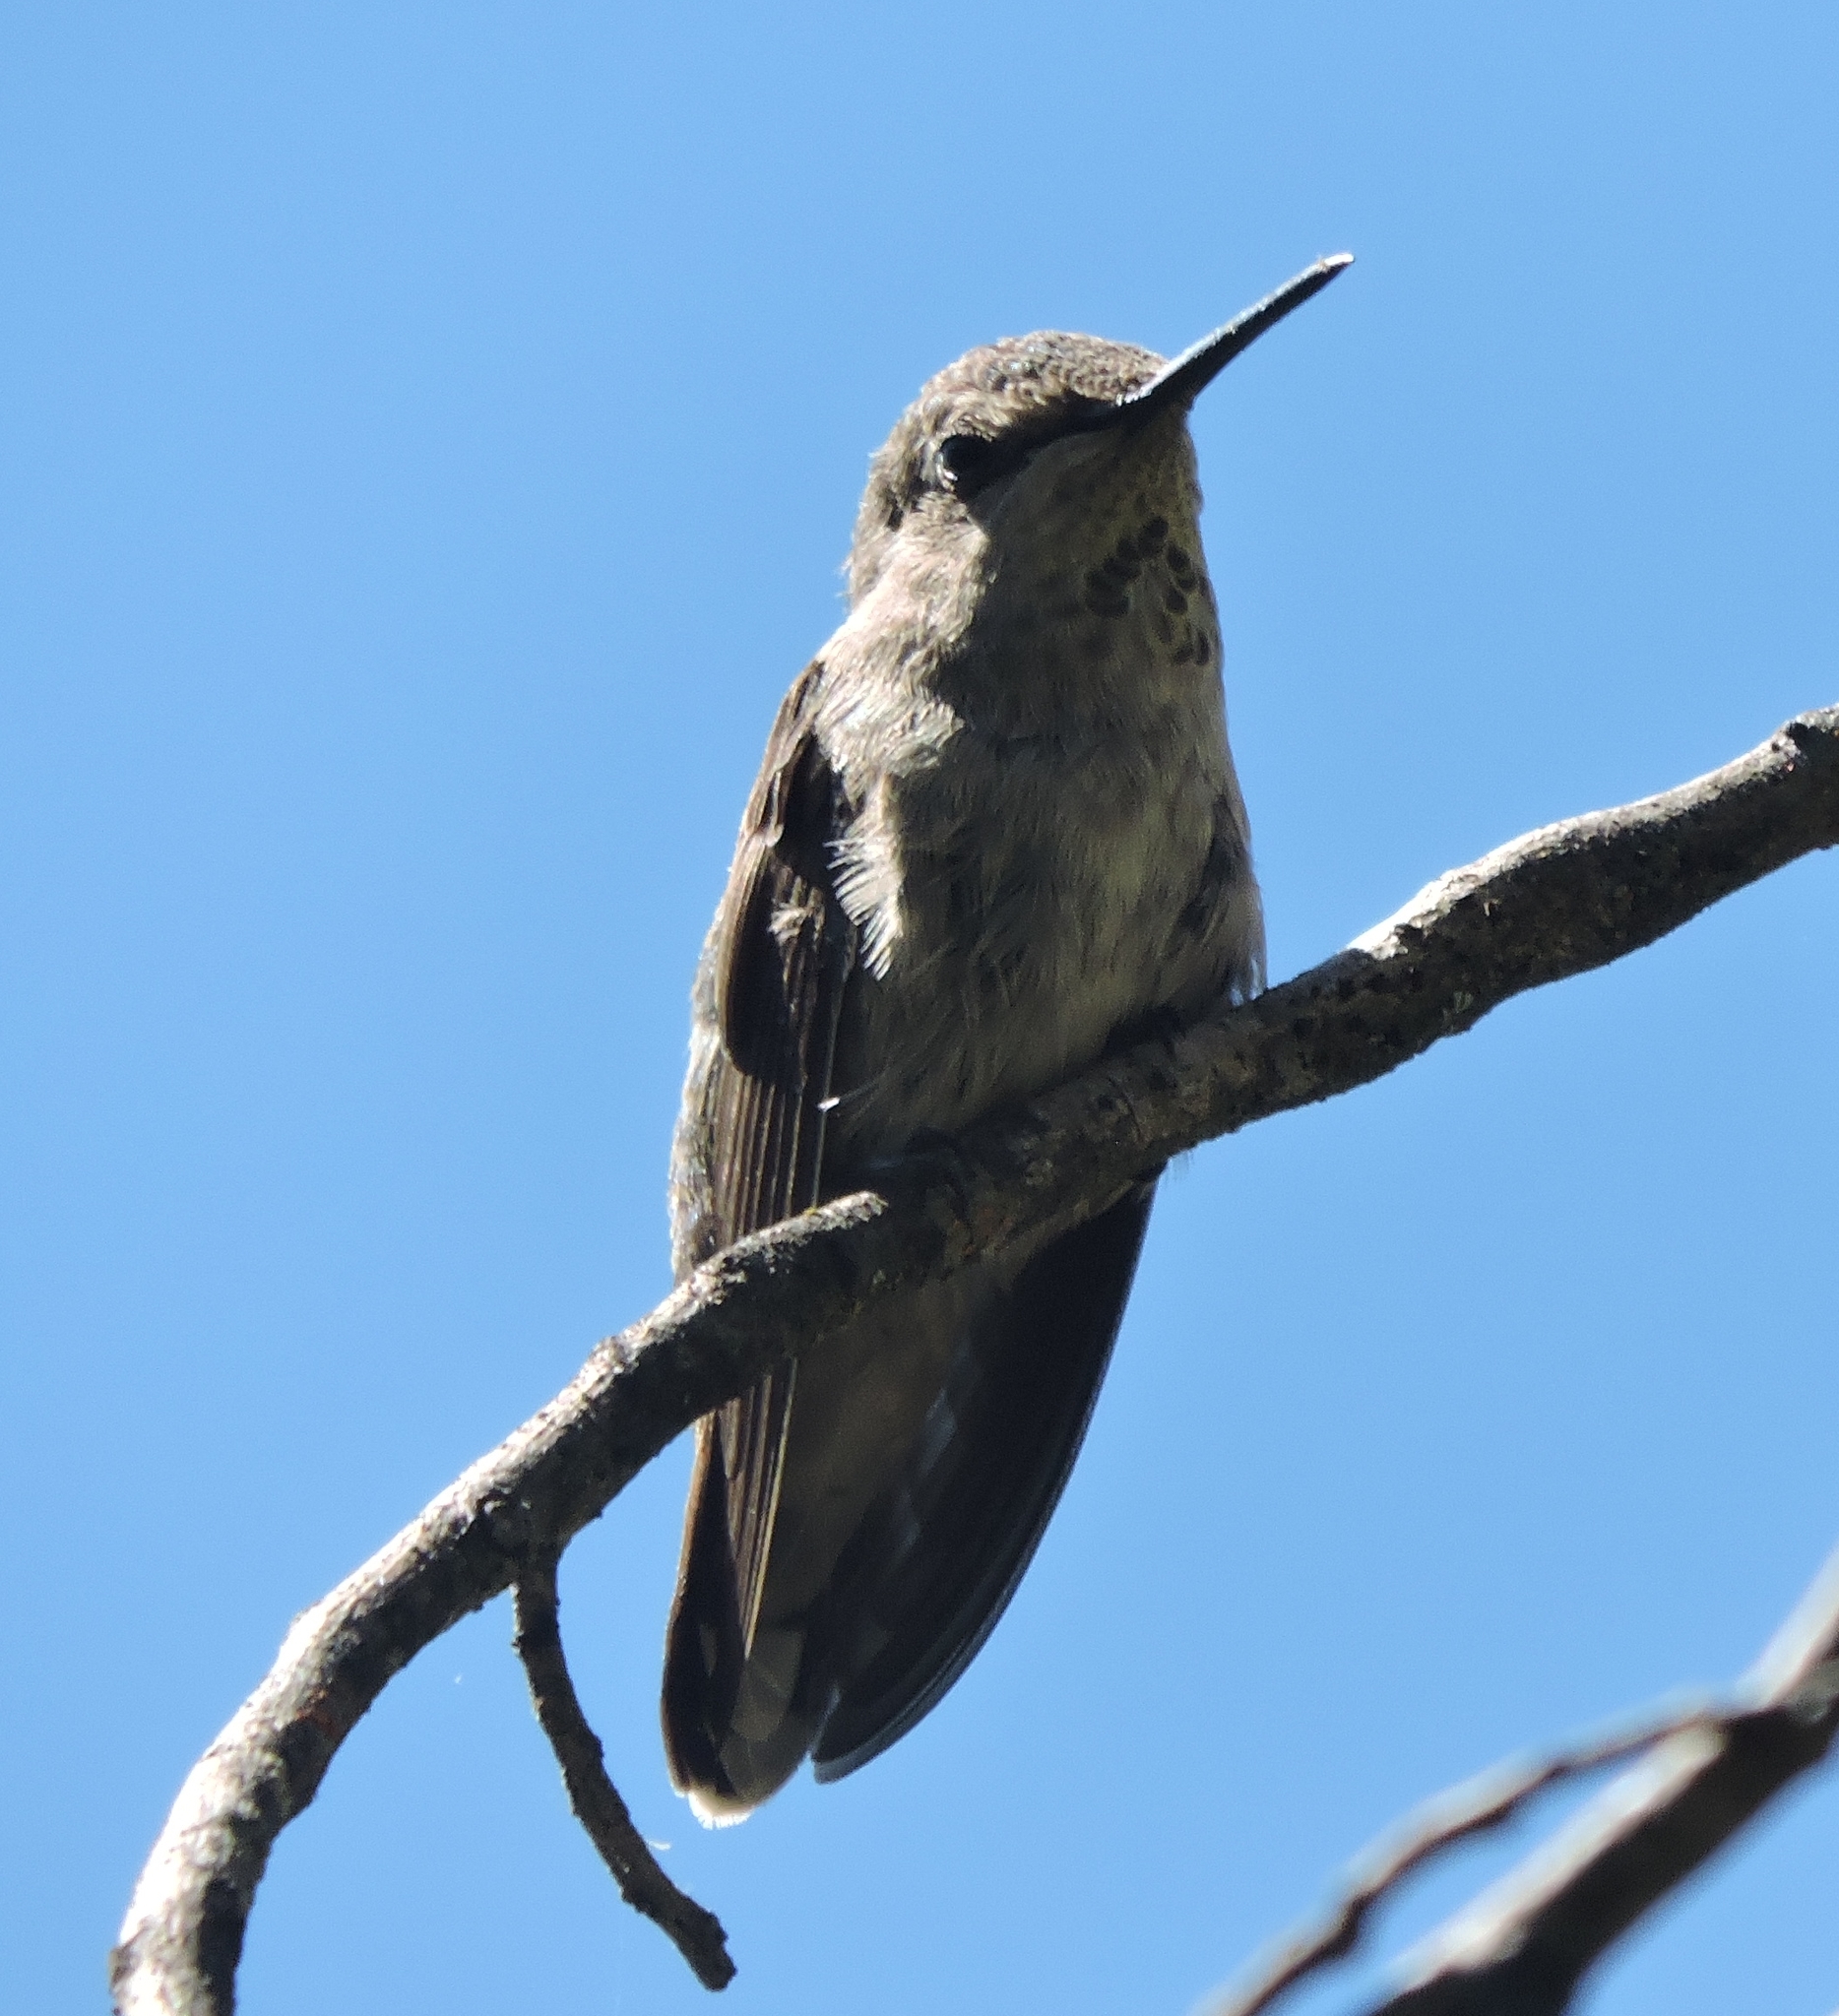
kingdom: Animalia
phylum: Chordata
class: Aves
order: Apodiformes
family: Trochilidae
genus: Calypte
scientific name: Calypte anna
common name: Anna's hummingbird
